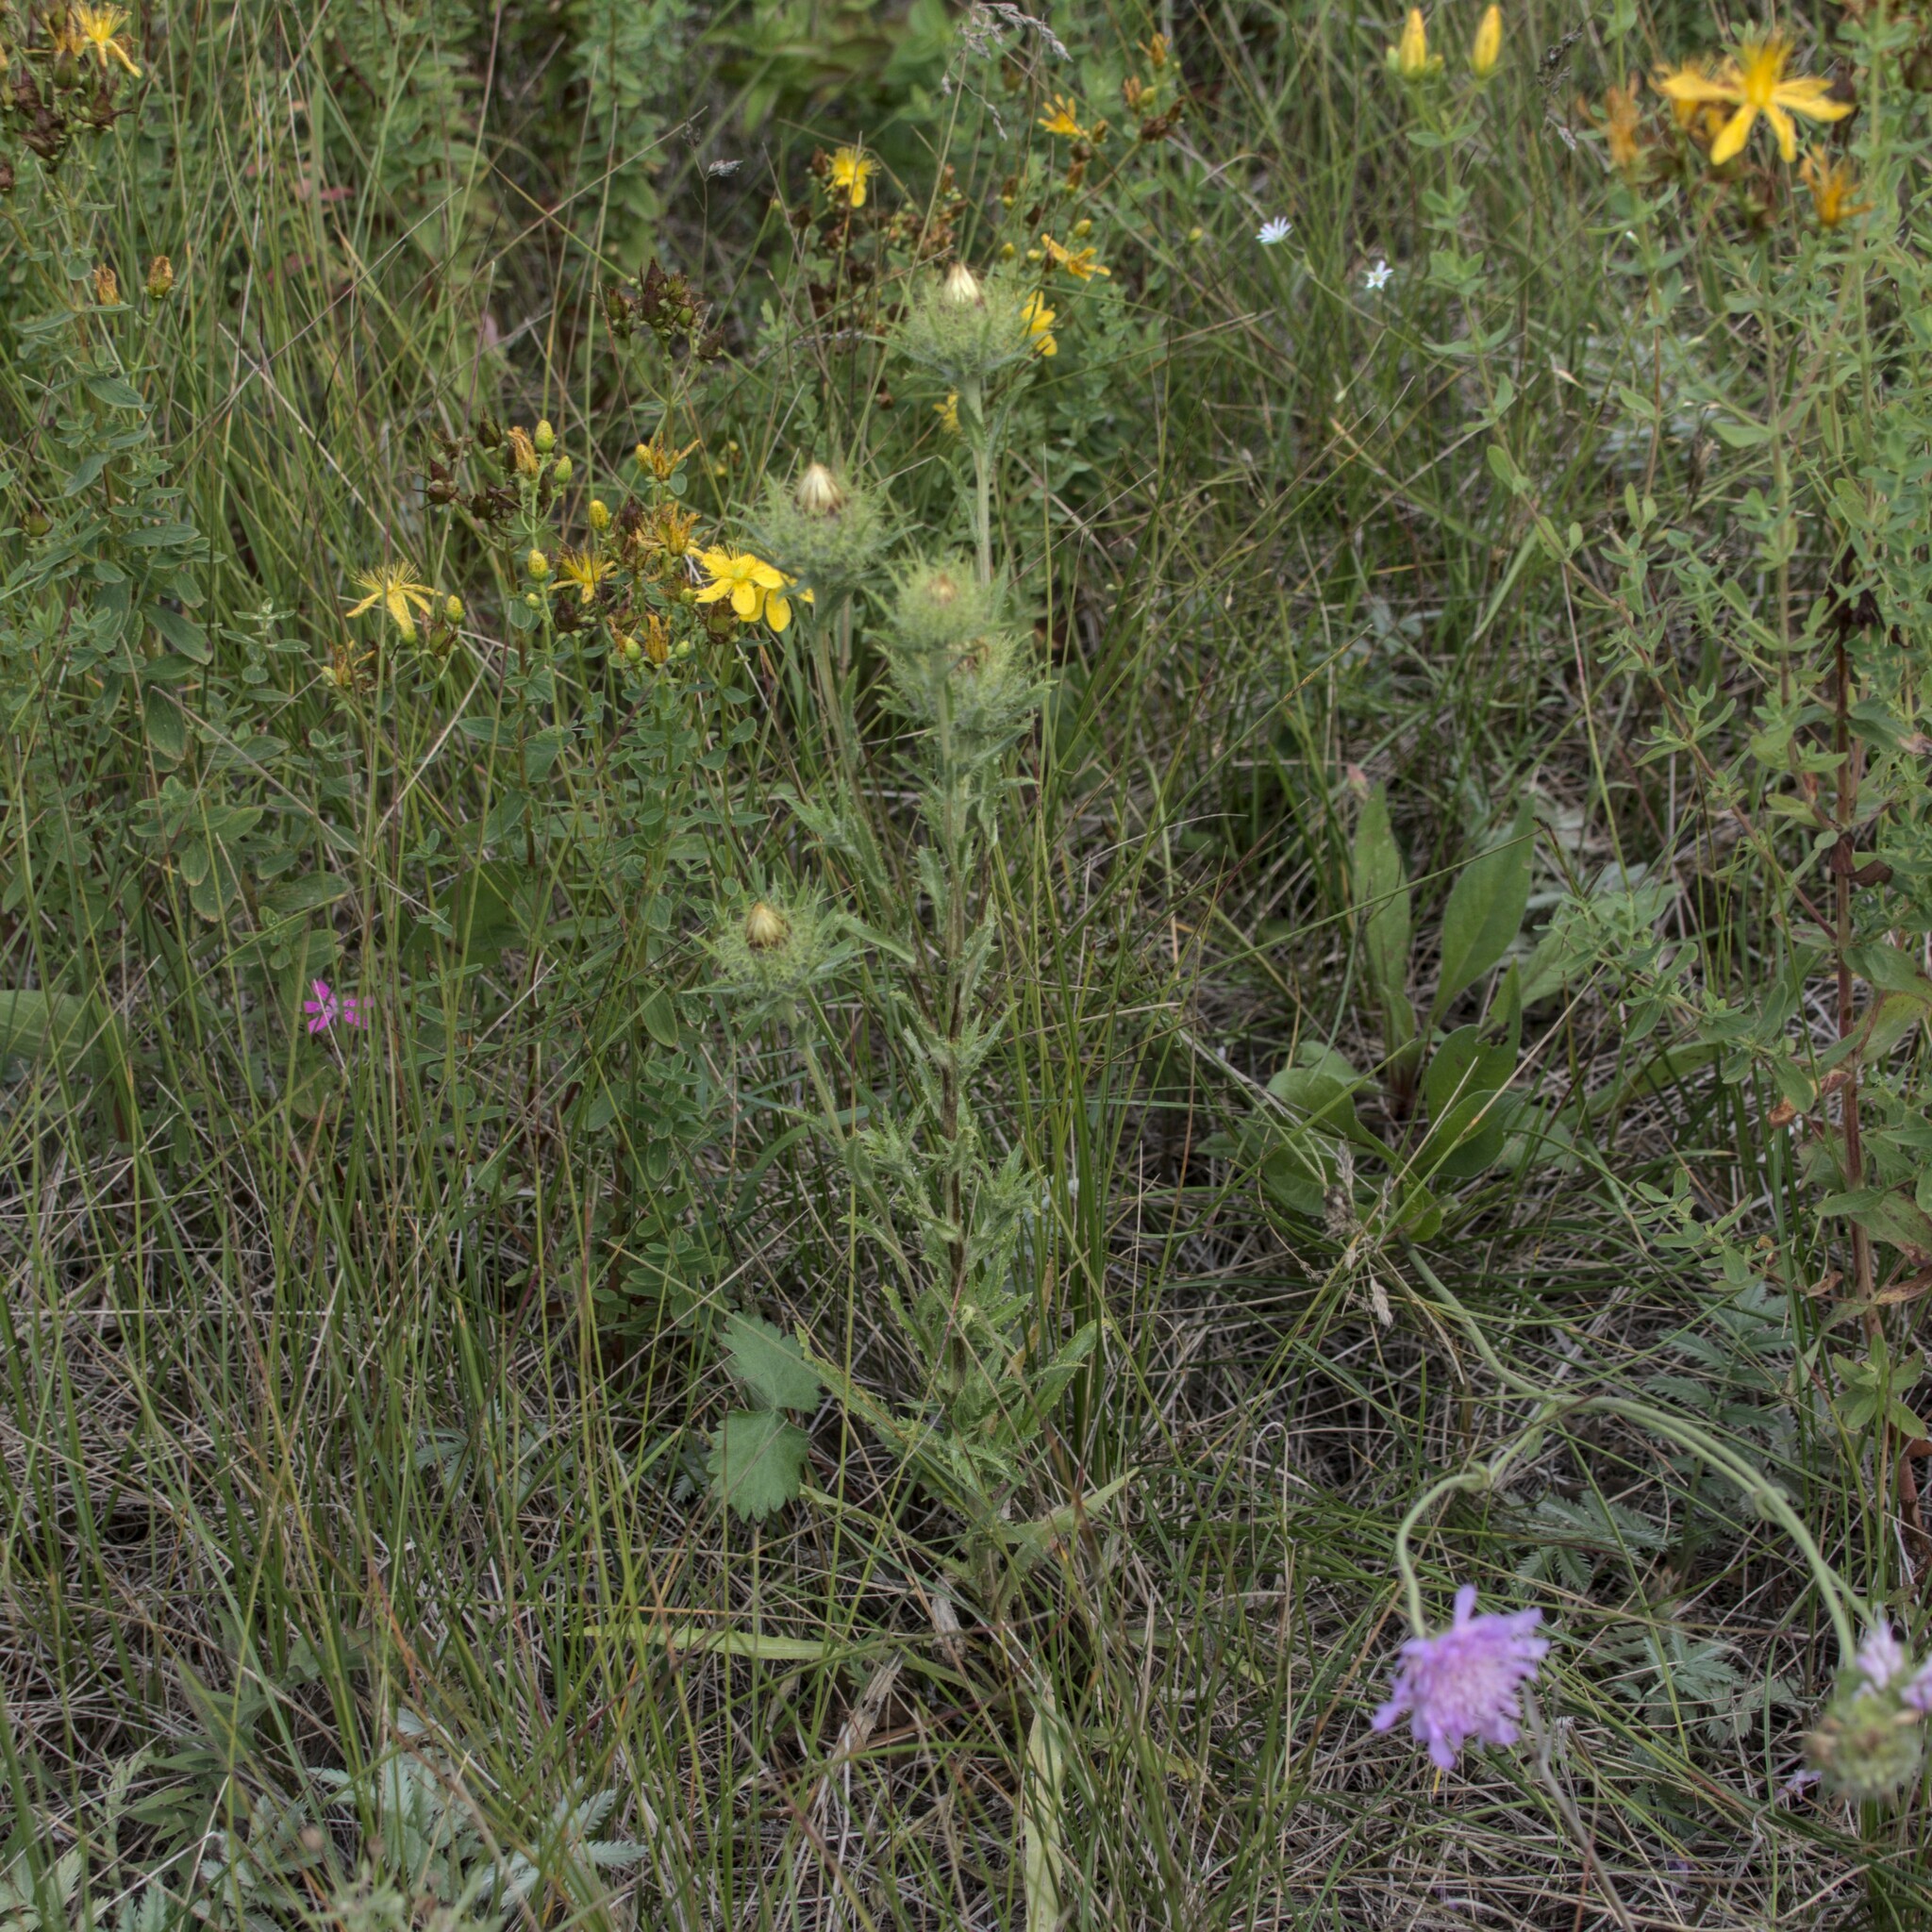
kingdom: Plantae
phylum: Tracheophyta
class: Magnoliopsida
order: Asterales
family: Asteraceae
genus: Carlina
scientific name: Carlina biebersteinii
